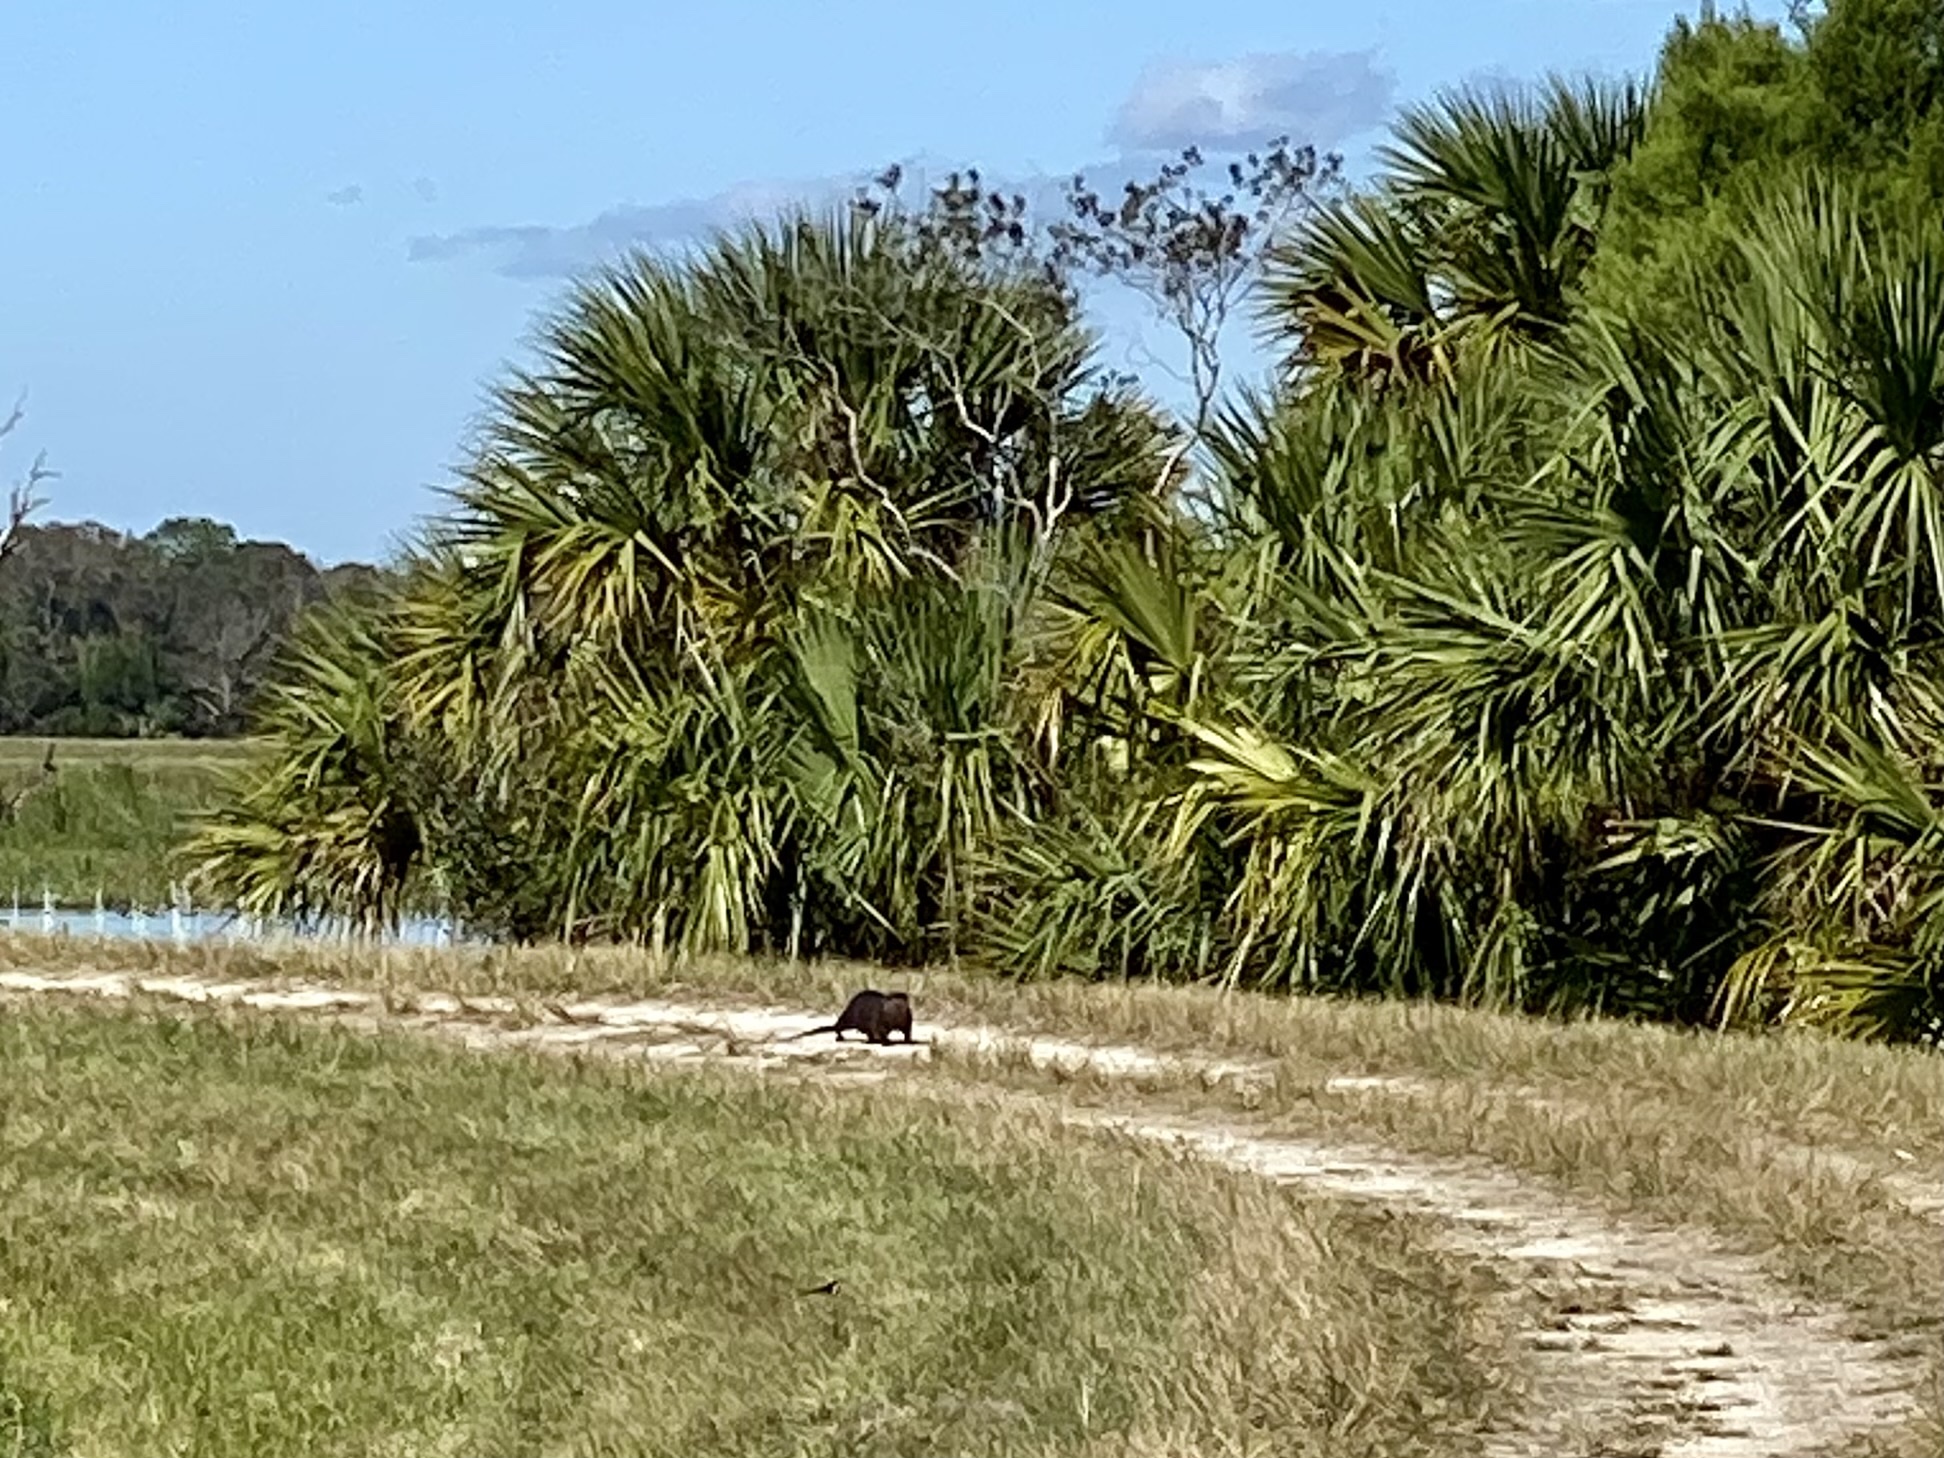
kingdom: Animalia
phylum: Chordata
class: Mammalia
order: Carnivora
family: Mustelidae
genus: Lontra
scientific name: Lontra canadensis
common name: North american river otter
